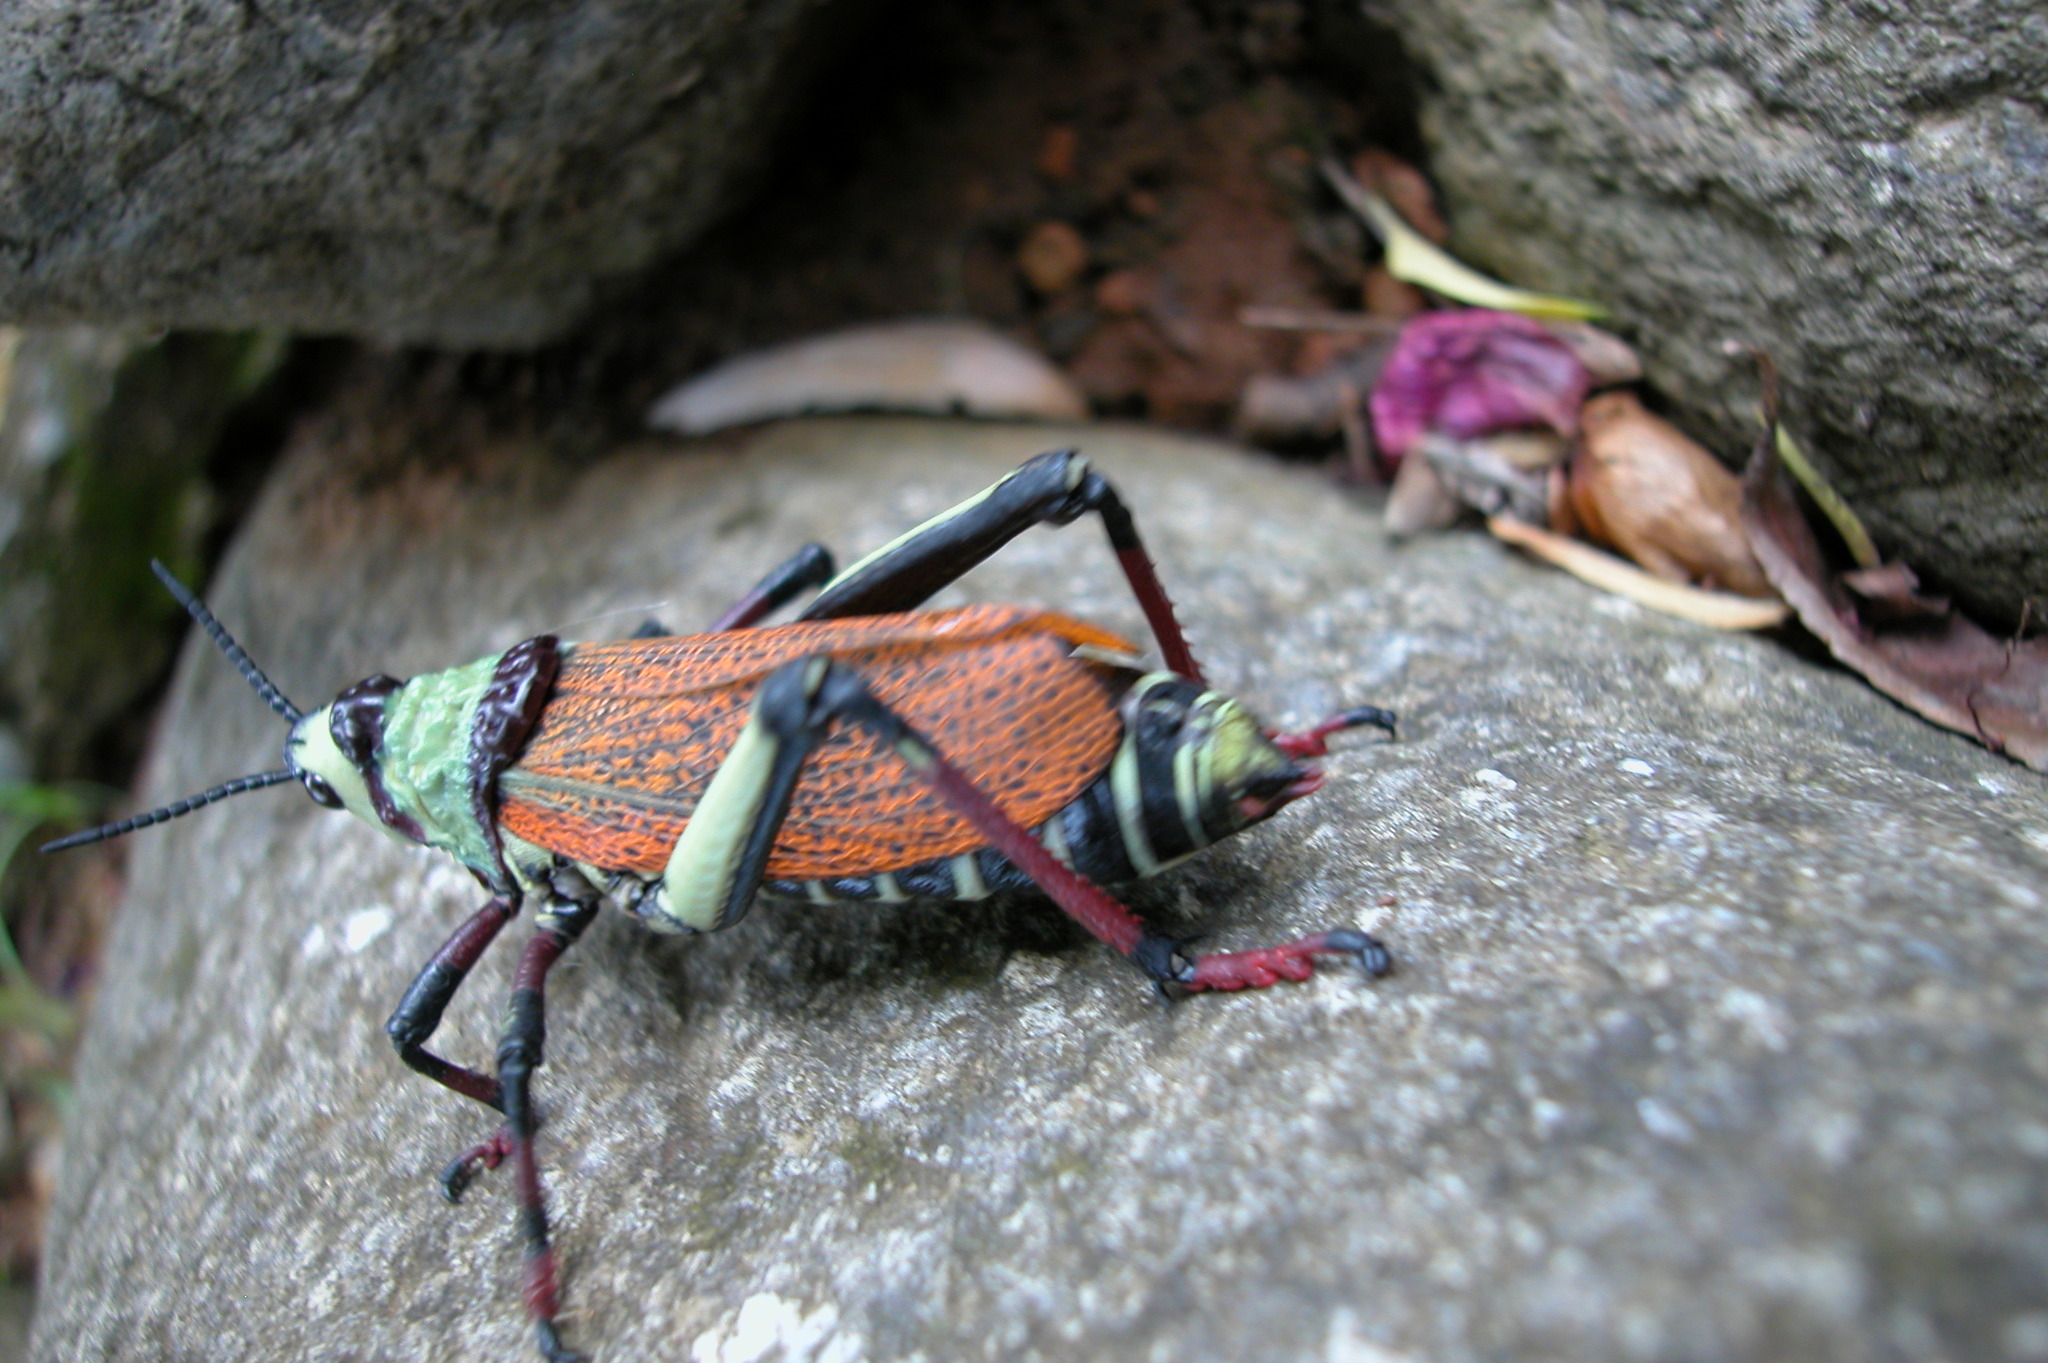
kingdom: Animalia
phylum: Arthropoda
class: Insecta
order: Orthoptera
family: Pyrgomorphidae
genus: Dictyophorus
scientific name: Dictyophorus spumans
